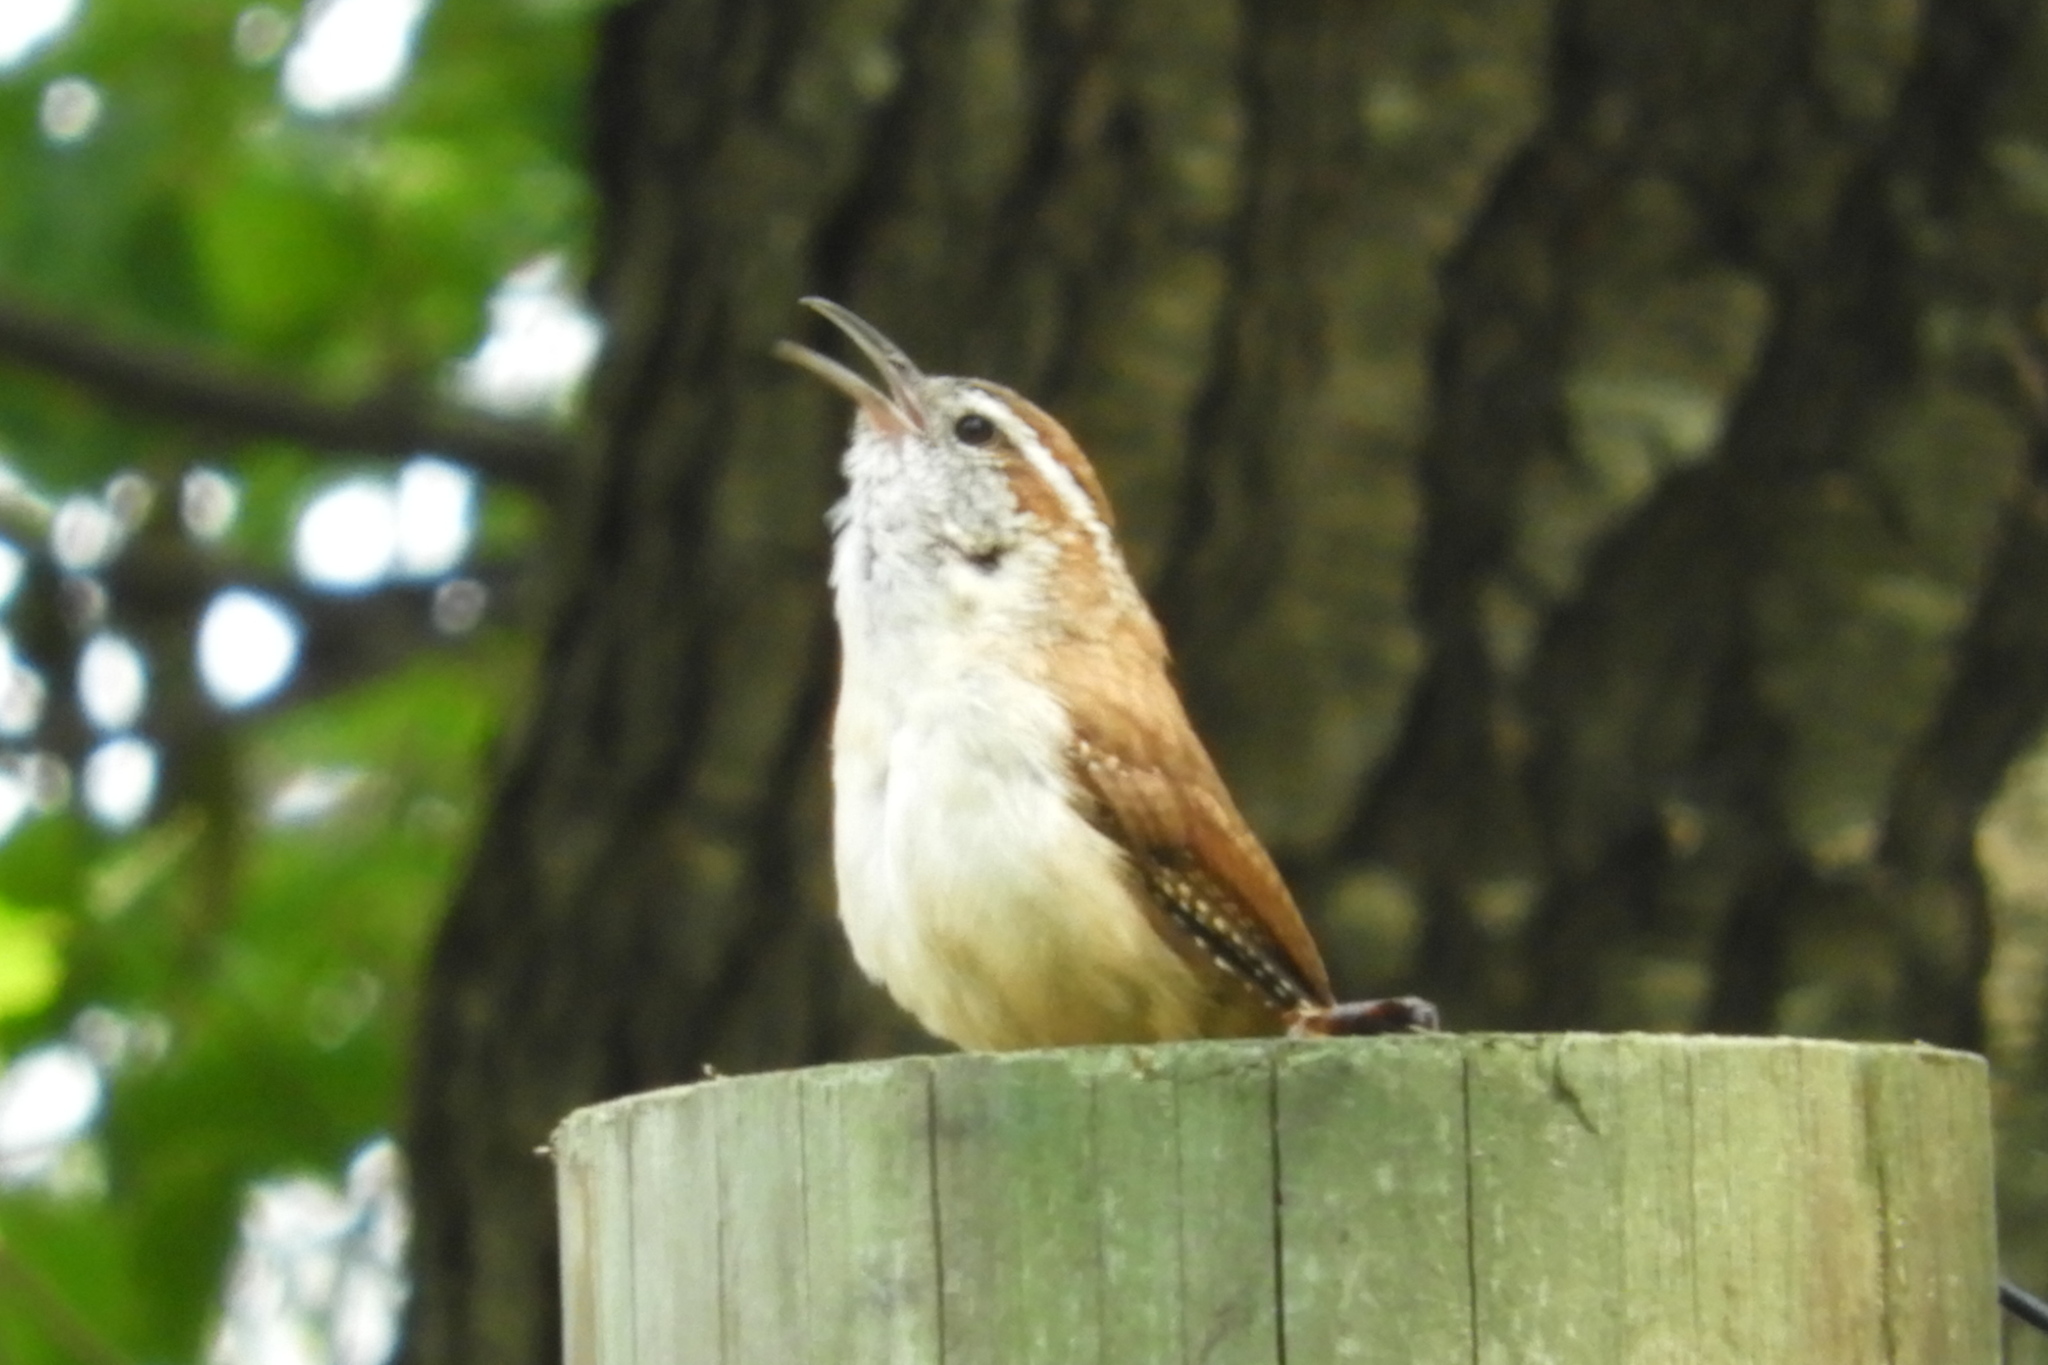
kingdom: Animalia
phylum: Chordata
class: Aves
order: Passeriformes
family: Troglodytidae
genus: Thryothorus
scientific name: Thryothorus ludovicianus
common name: Carolina wren
